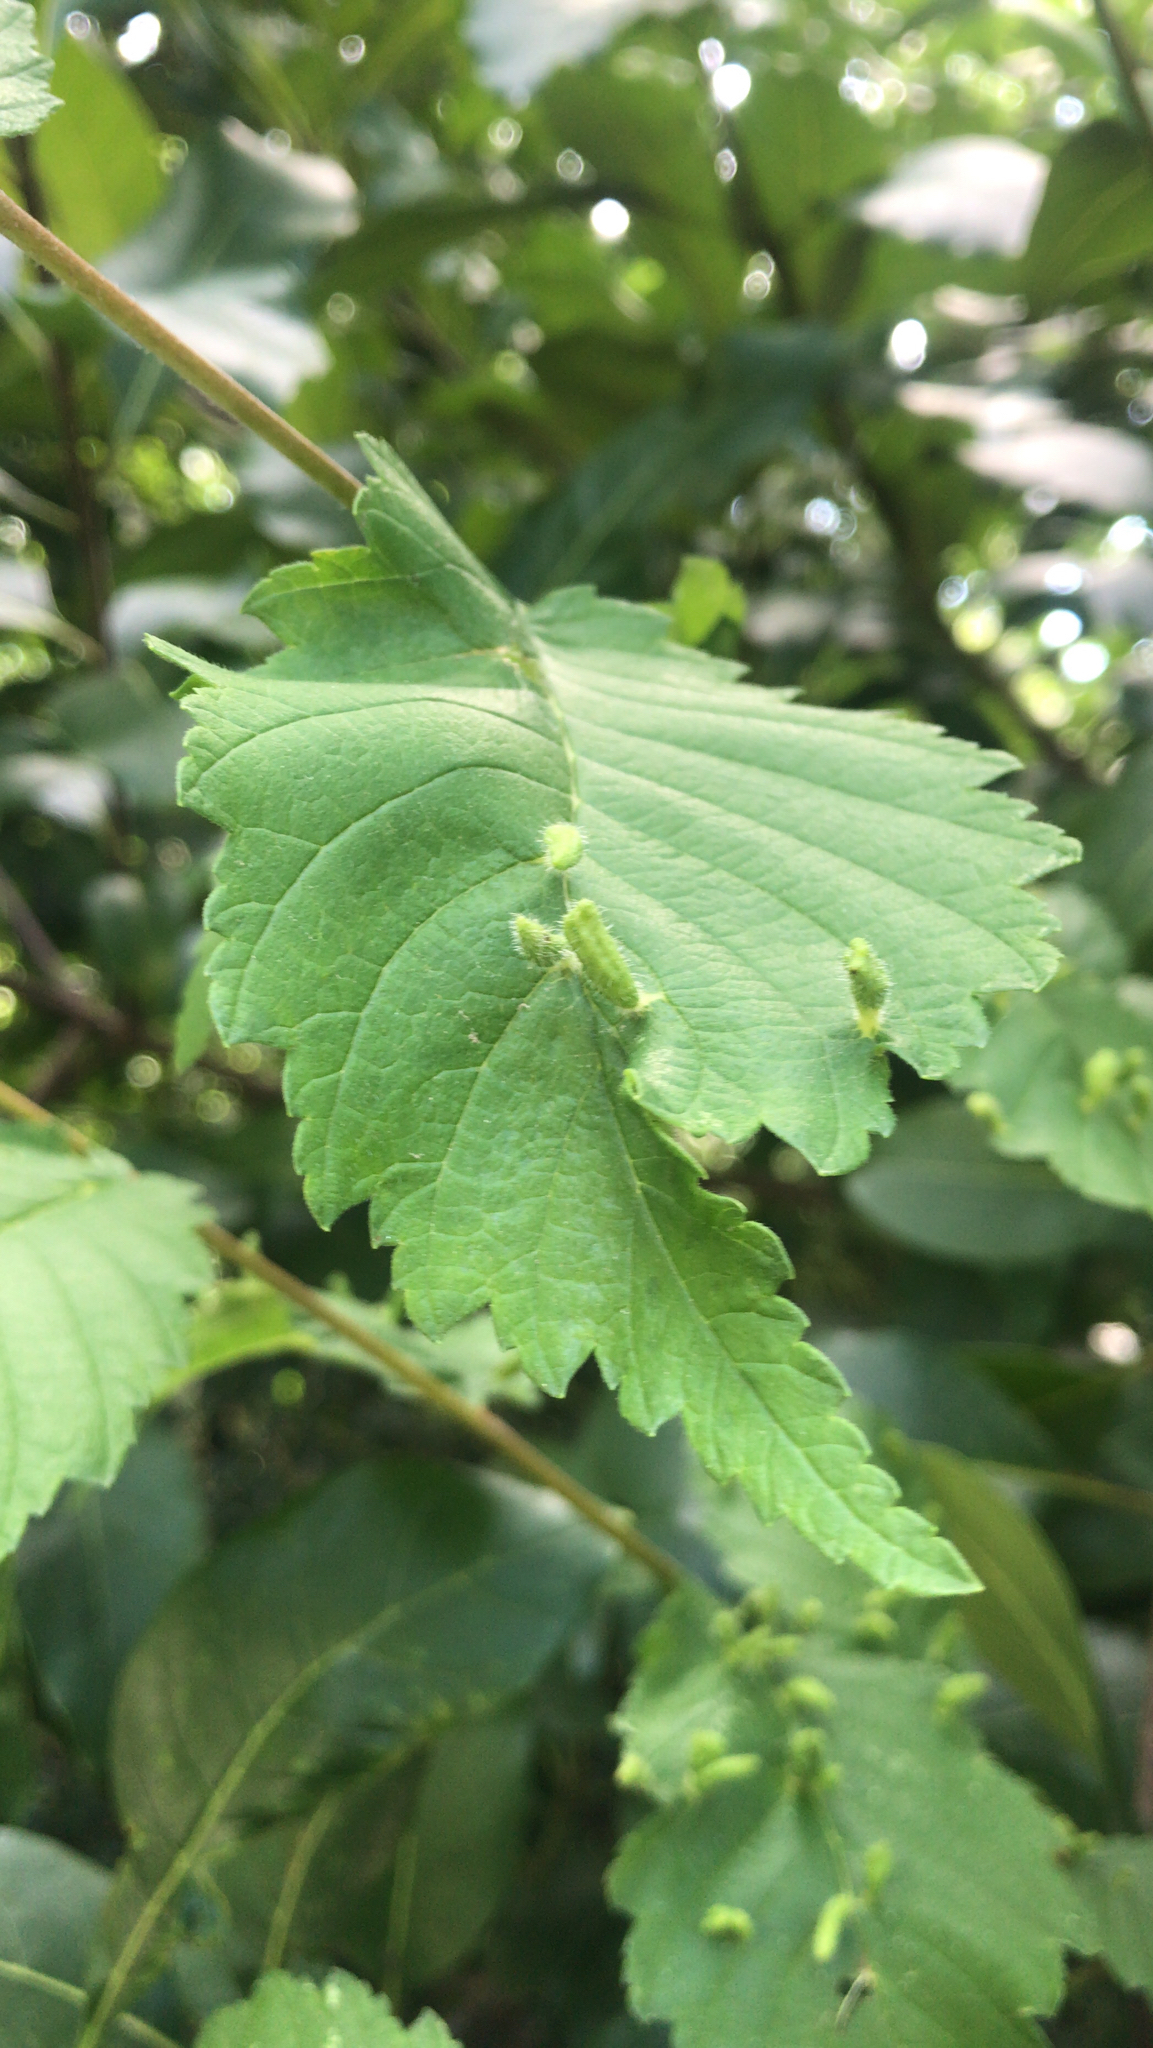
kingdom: Animalia
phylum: Arthropoda
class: Arachnida
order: Trombidiformes
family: Eriophyidae
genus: Aceria
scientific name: Aceria
